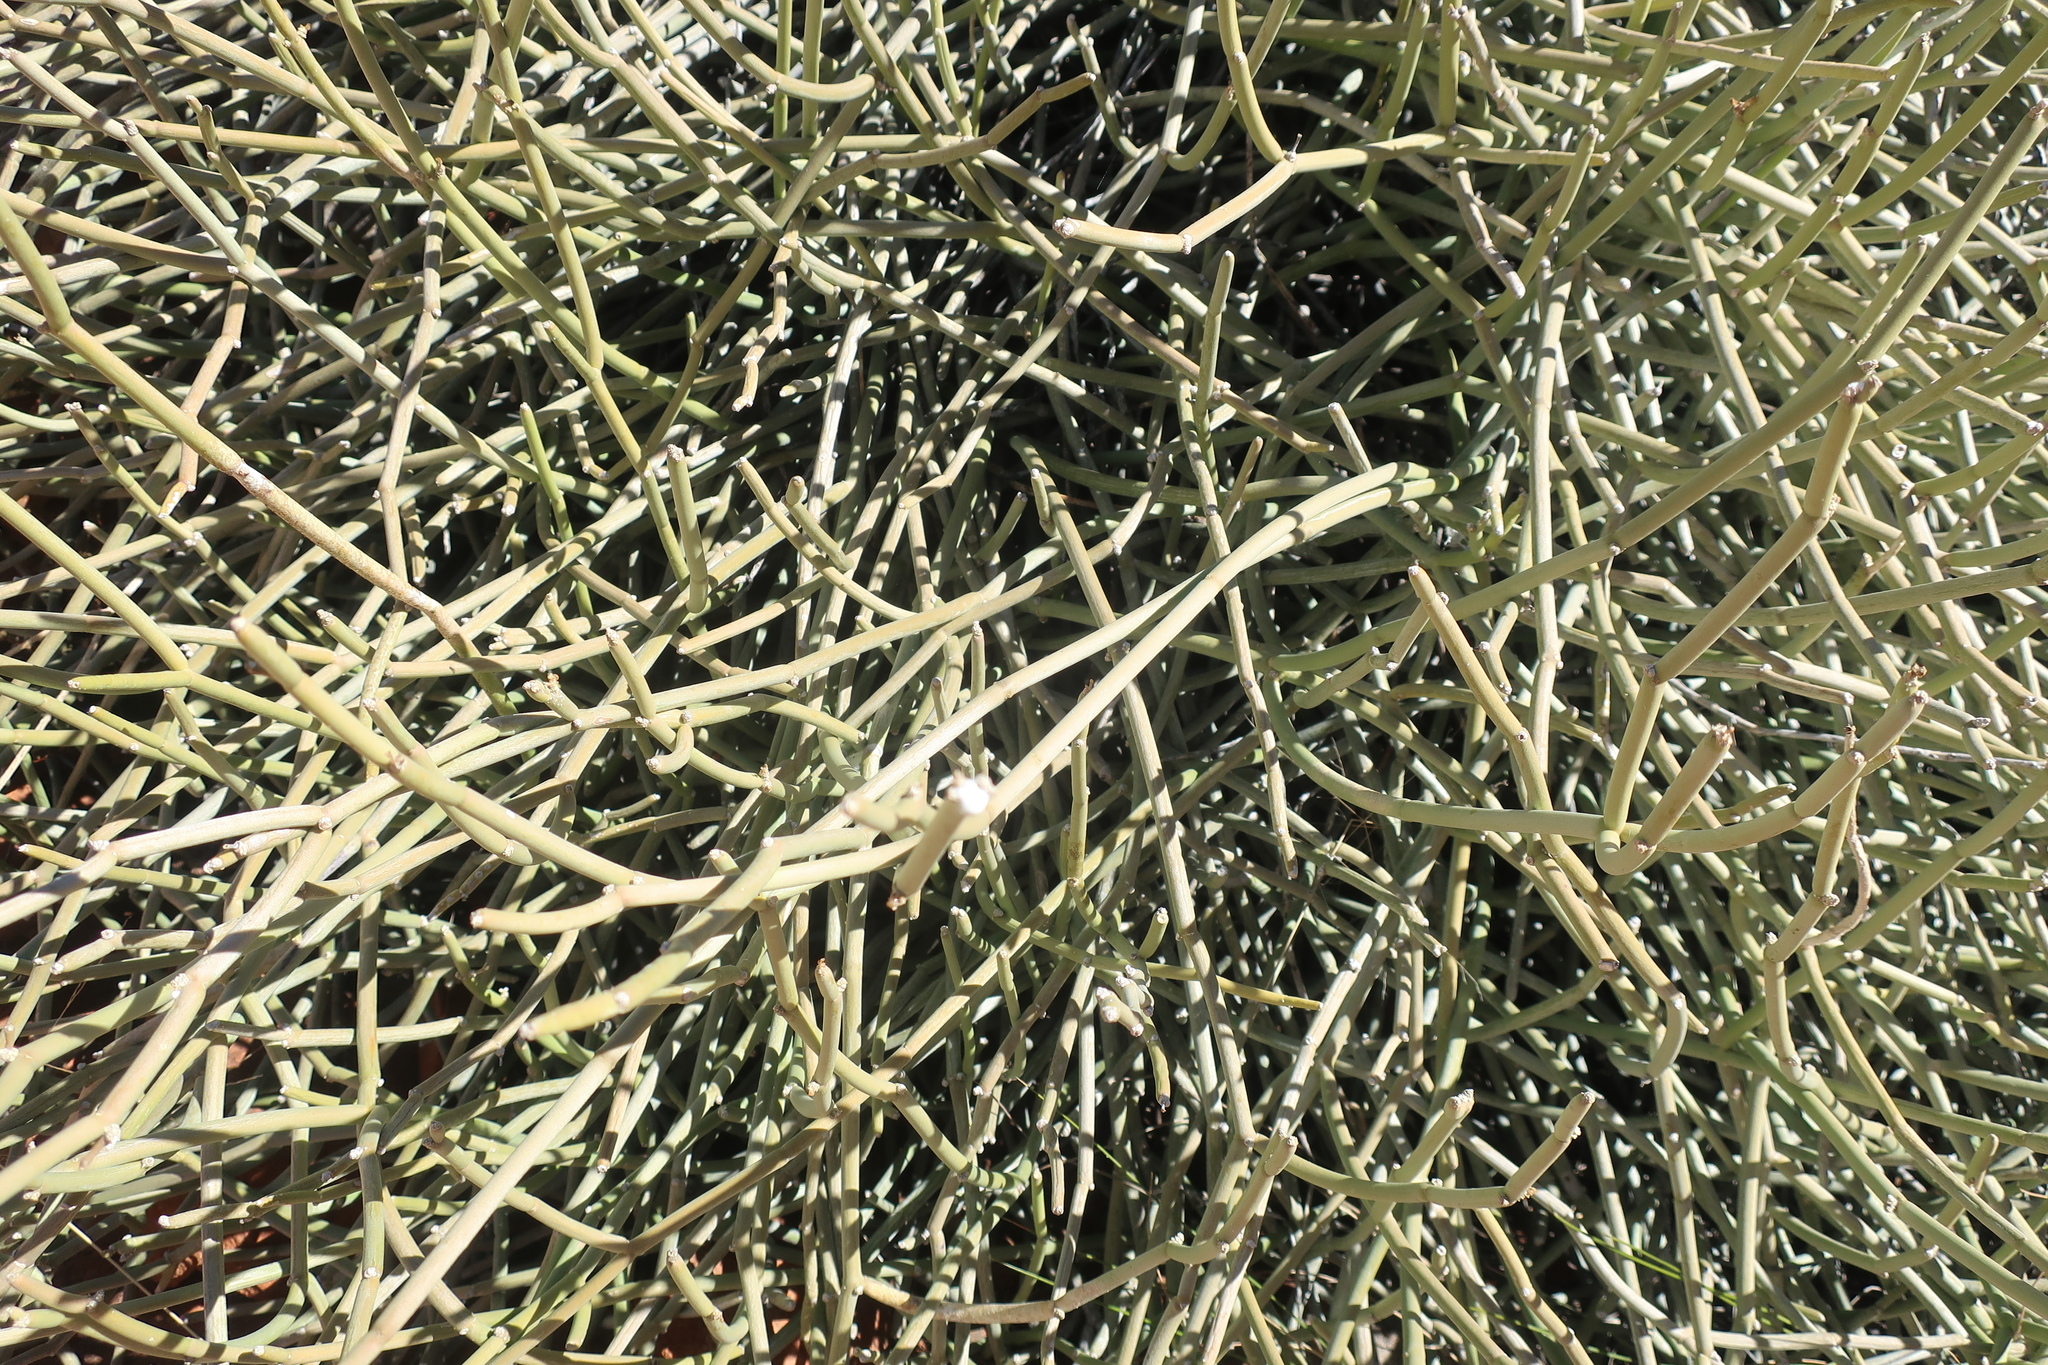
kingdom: Plantae
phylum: Tracheophyta
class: Magnoliopsida
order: Gentianales
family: Apocynaceae
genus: Cynanchum
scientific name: Cynanchum viminale
